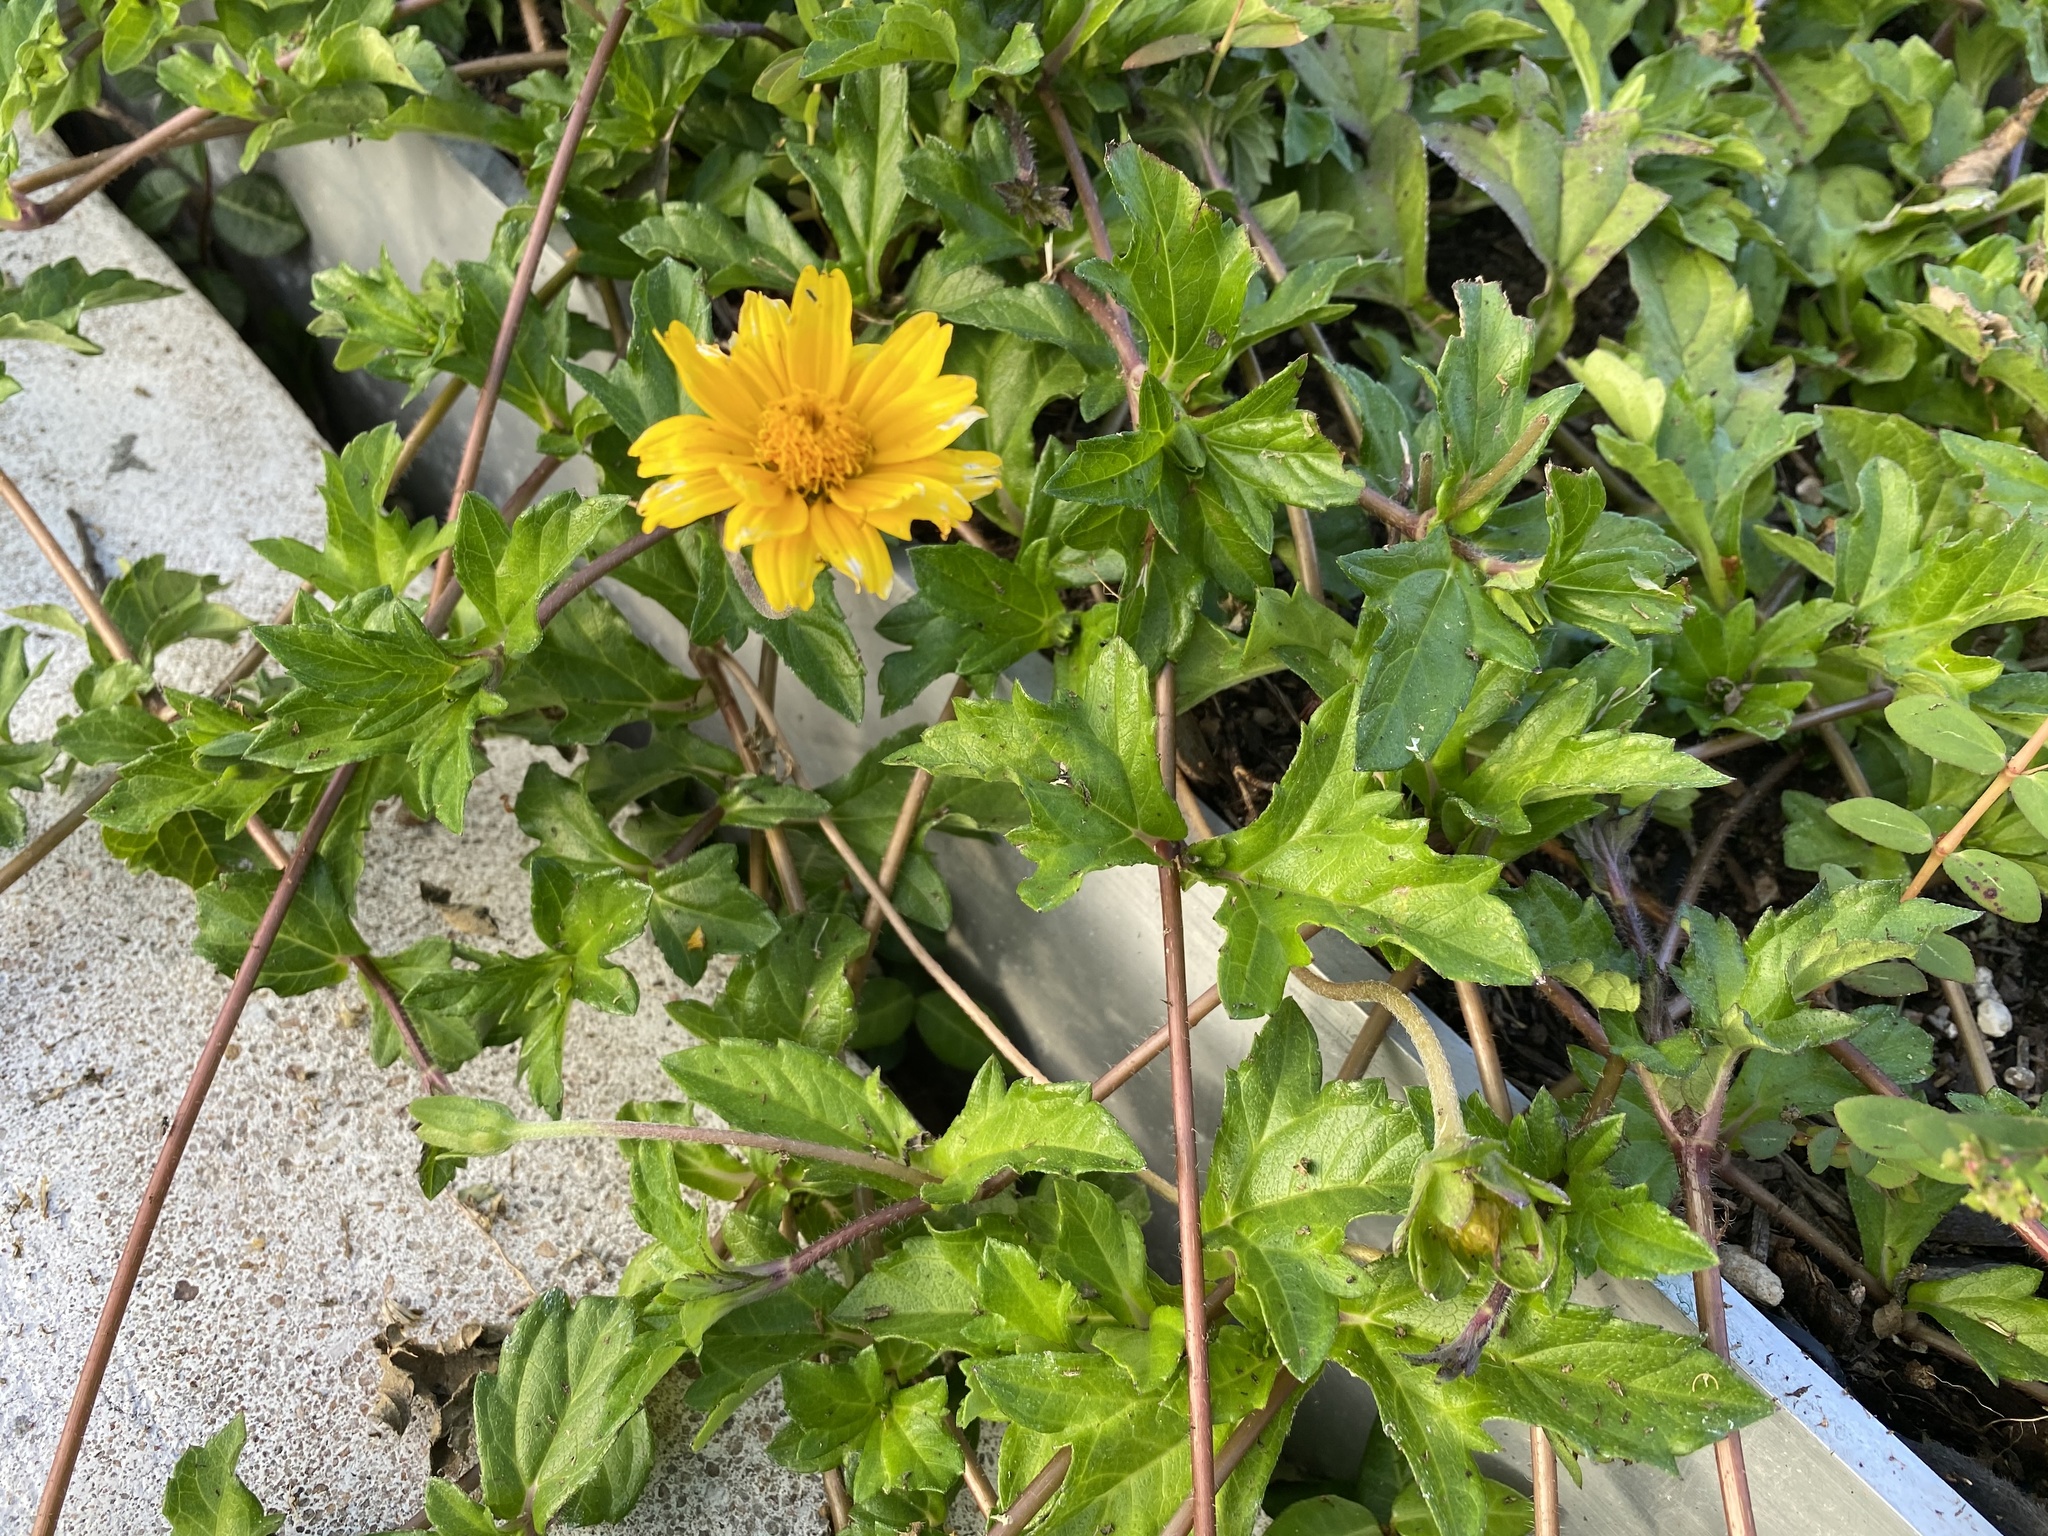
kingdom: Plantae
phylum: Tracheophyta
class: Magnoliopsida
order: Asterales
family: Asteraceae
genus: Sphagneticola
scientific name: Sphagneticola trilobata
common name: Bay biscayne creeping-oxeye
